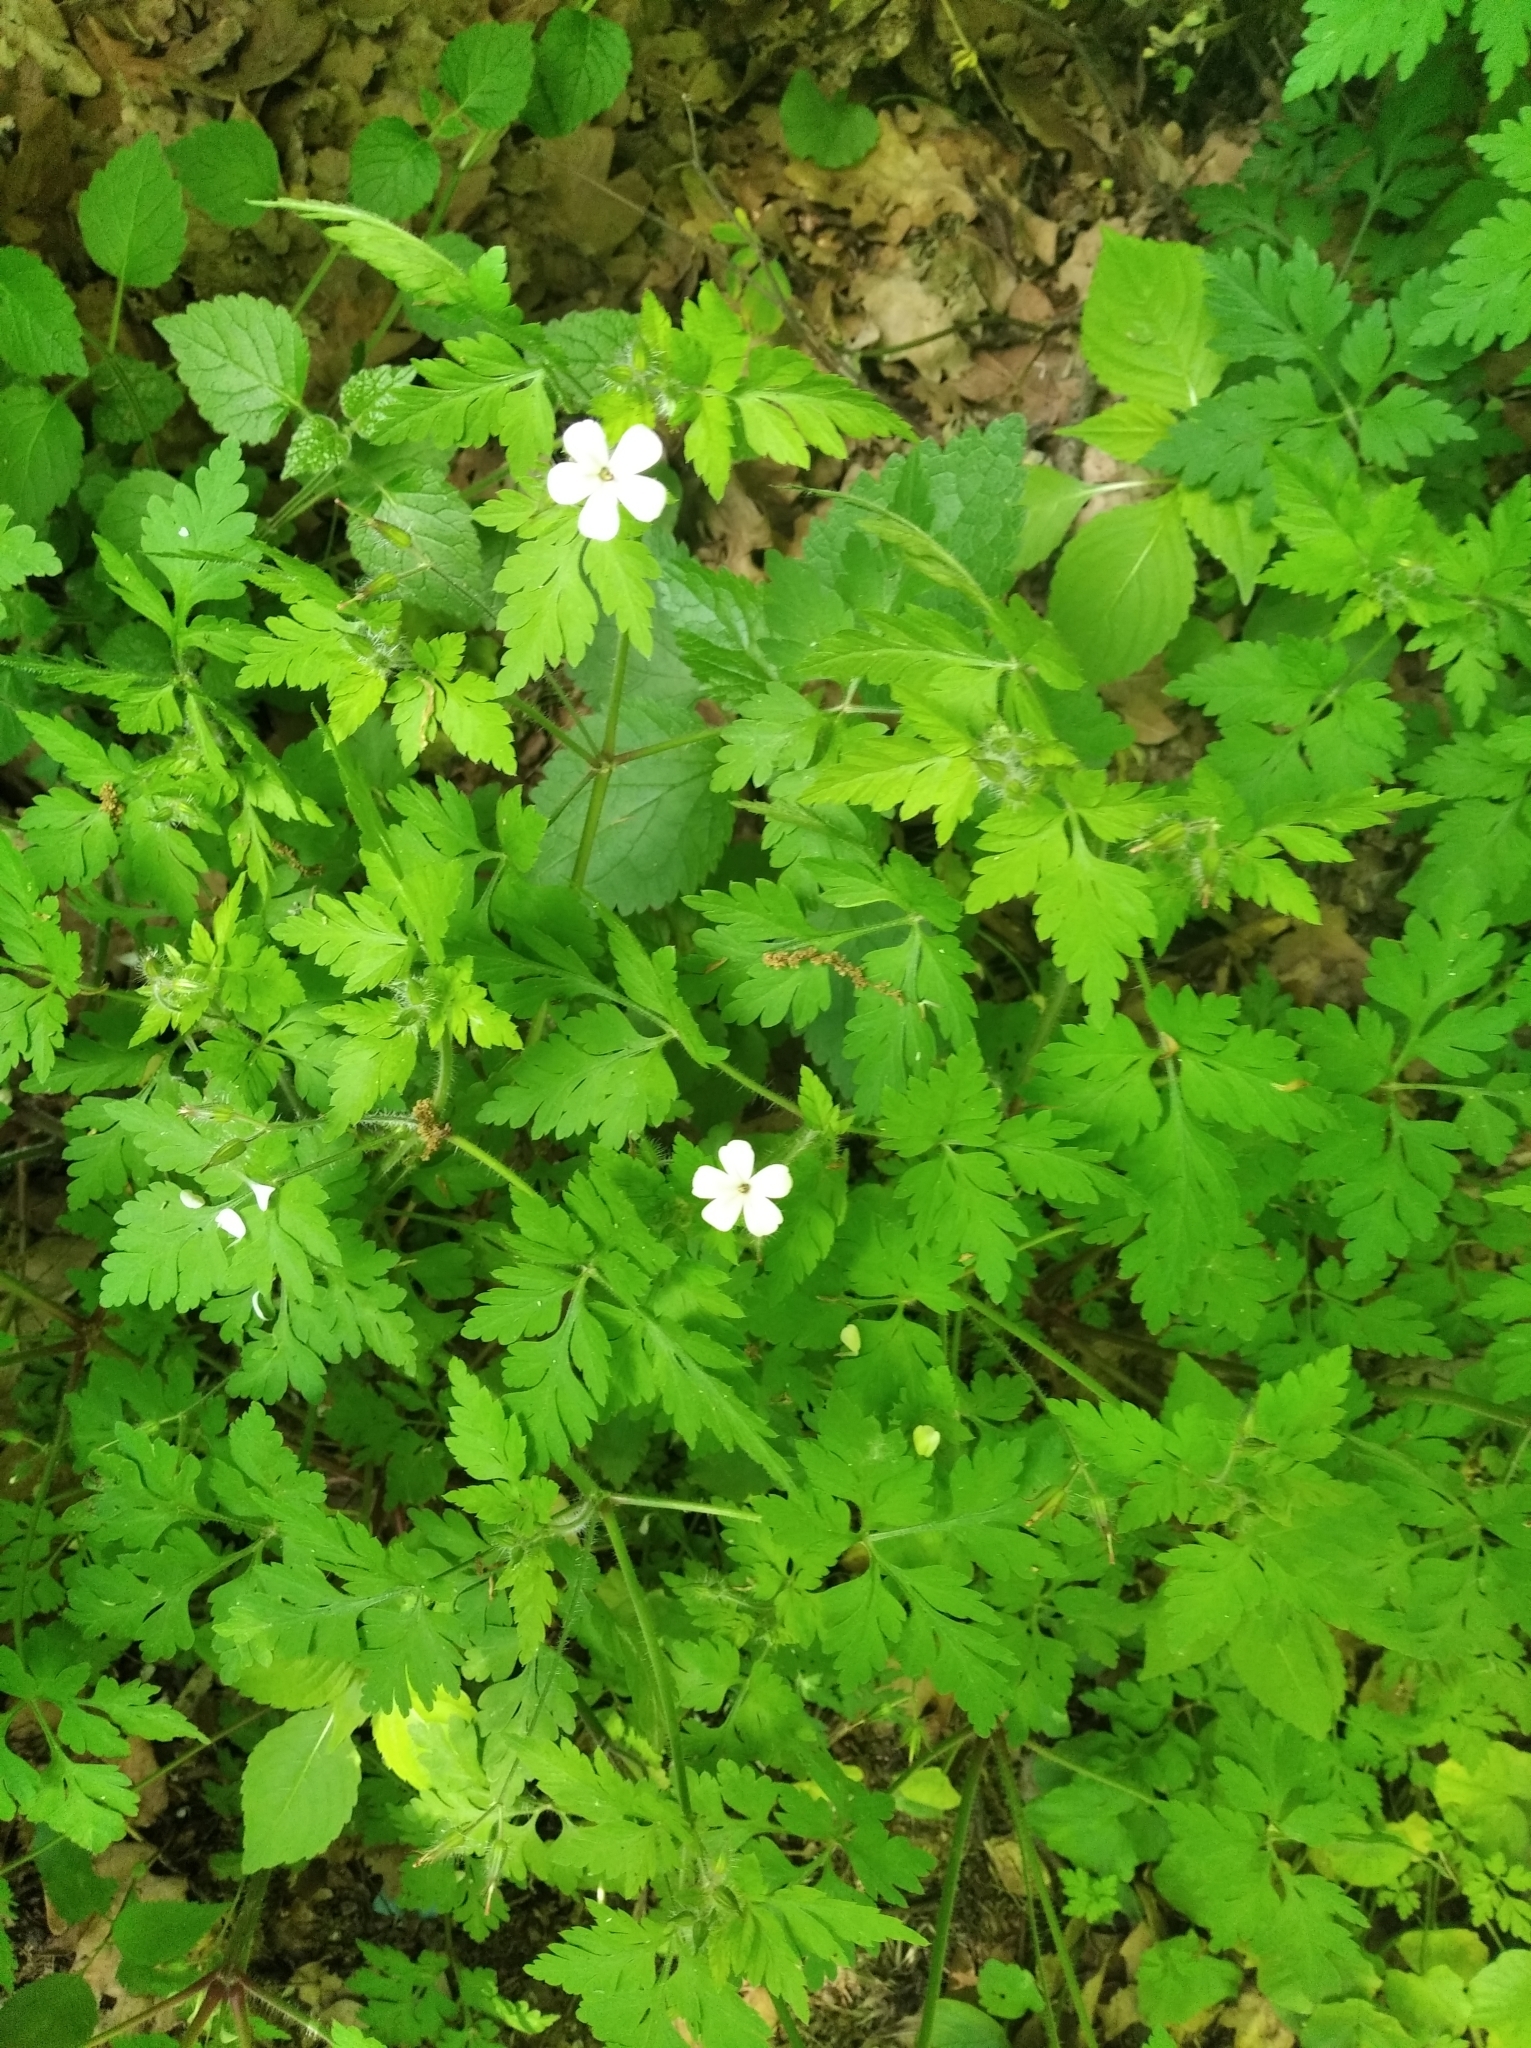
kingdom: Plantae
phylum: Tracheophyta
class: Magnoliopsida
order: Geraniales
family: Geraniaceae
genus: Geranium
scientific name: Geranium robertianum
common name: Herb-robert
